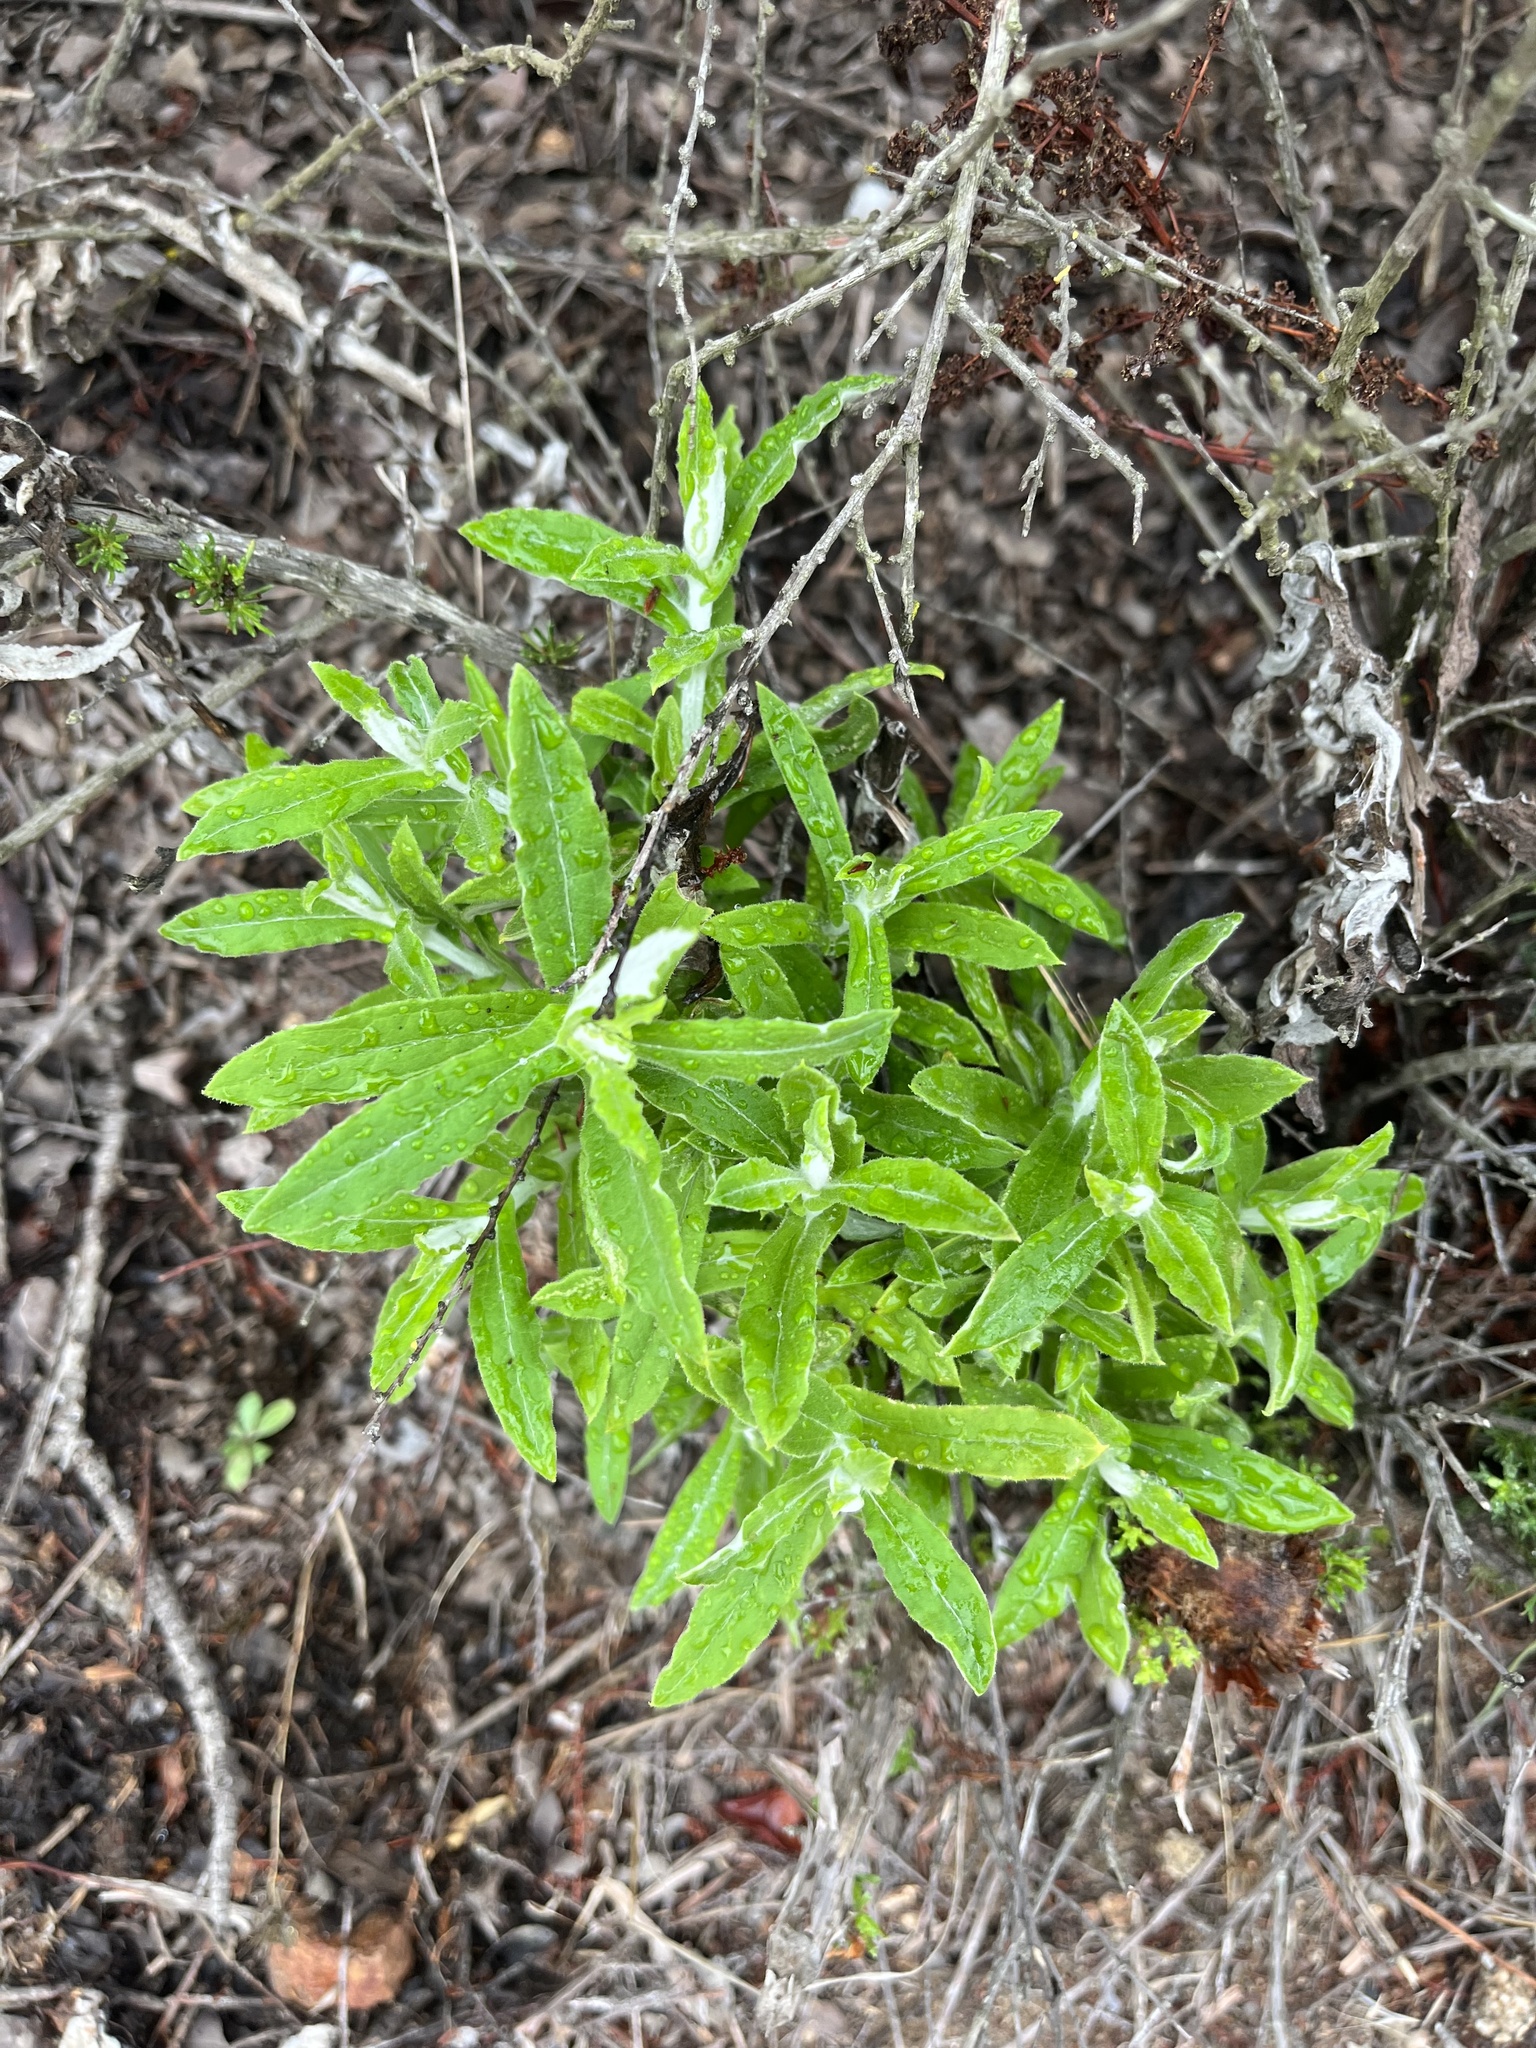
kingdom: Plantae
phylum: Tracheophyta
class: Magnoliopsida
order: Asterales
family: Asteraceae
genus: Pseudognaphalium
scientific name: Pseudognaphalium biolettii
